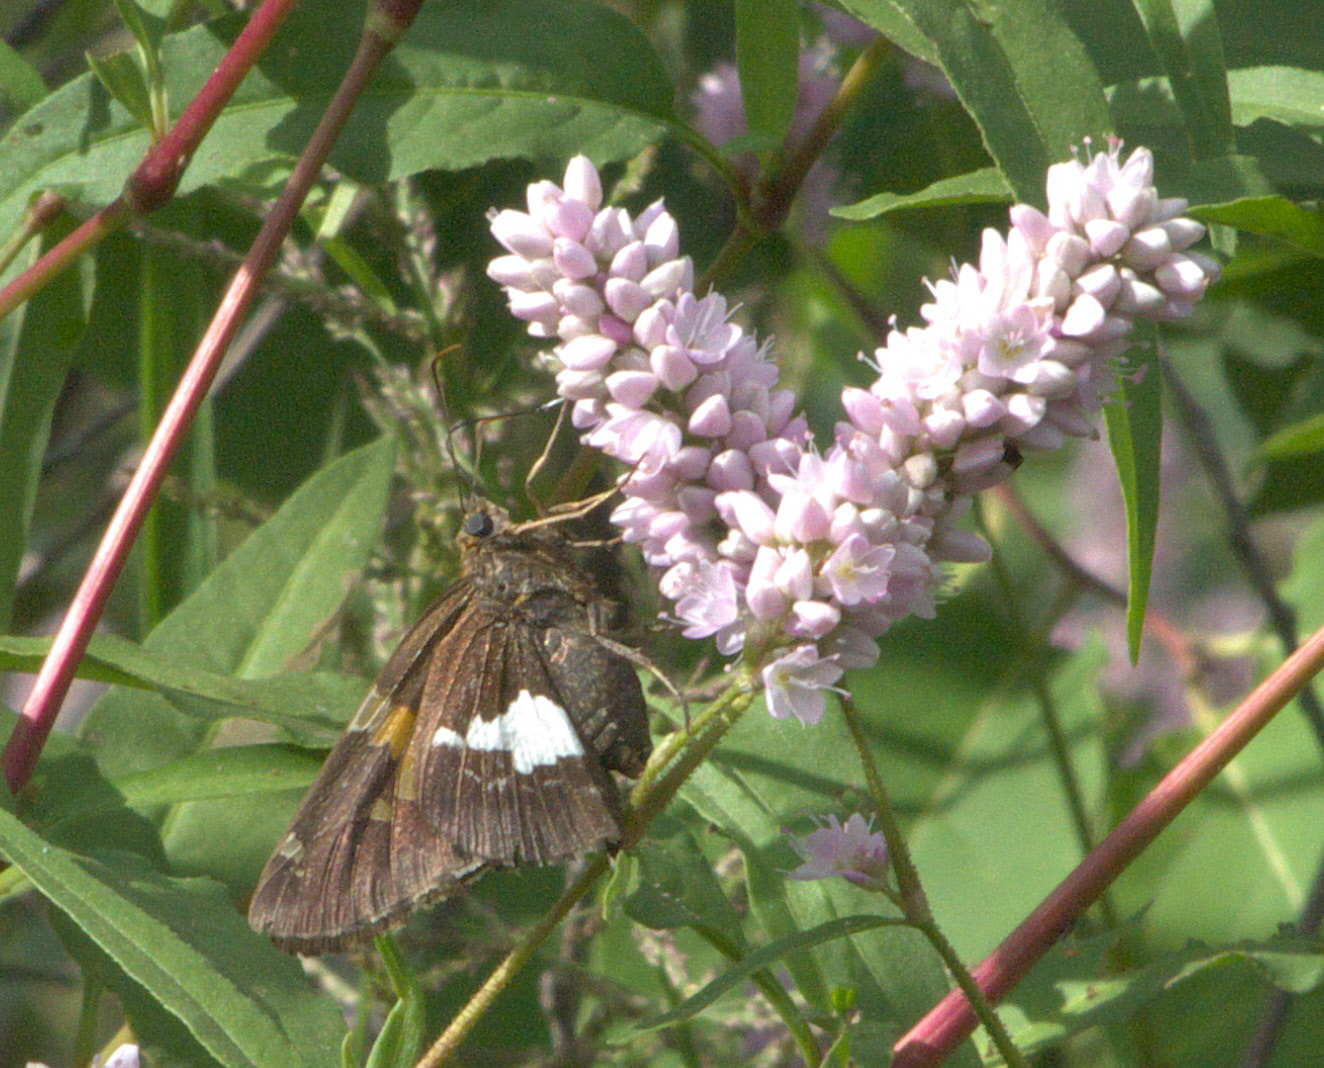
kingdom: Animalia
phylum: Arthropoda
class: Insecta
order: Lepidoptera
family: Hesperiidae
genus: Epargyreus
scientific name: Epargyreus clarus
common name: Silver-spotted skipper
